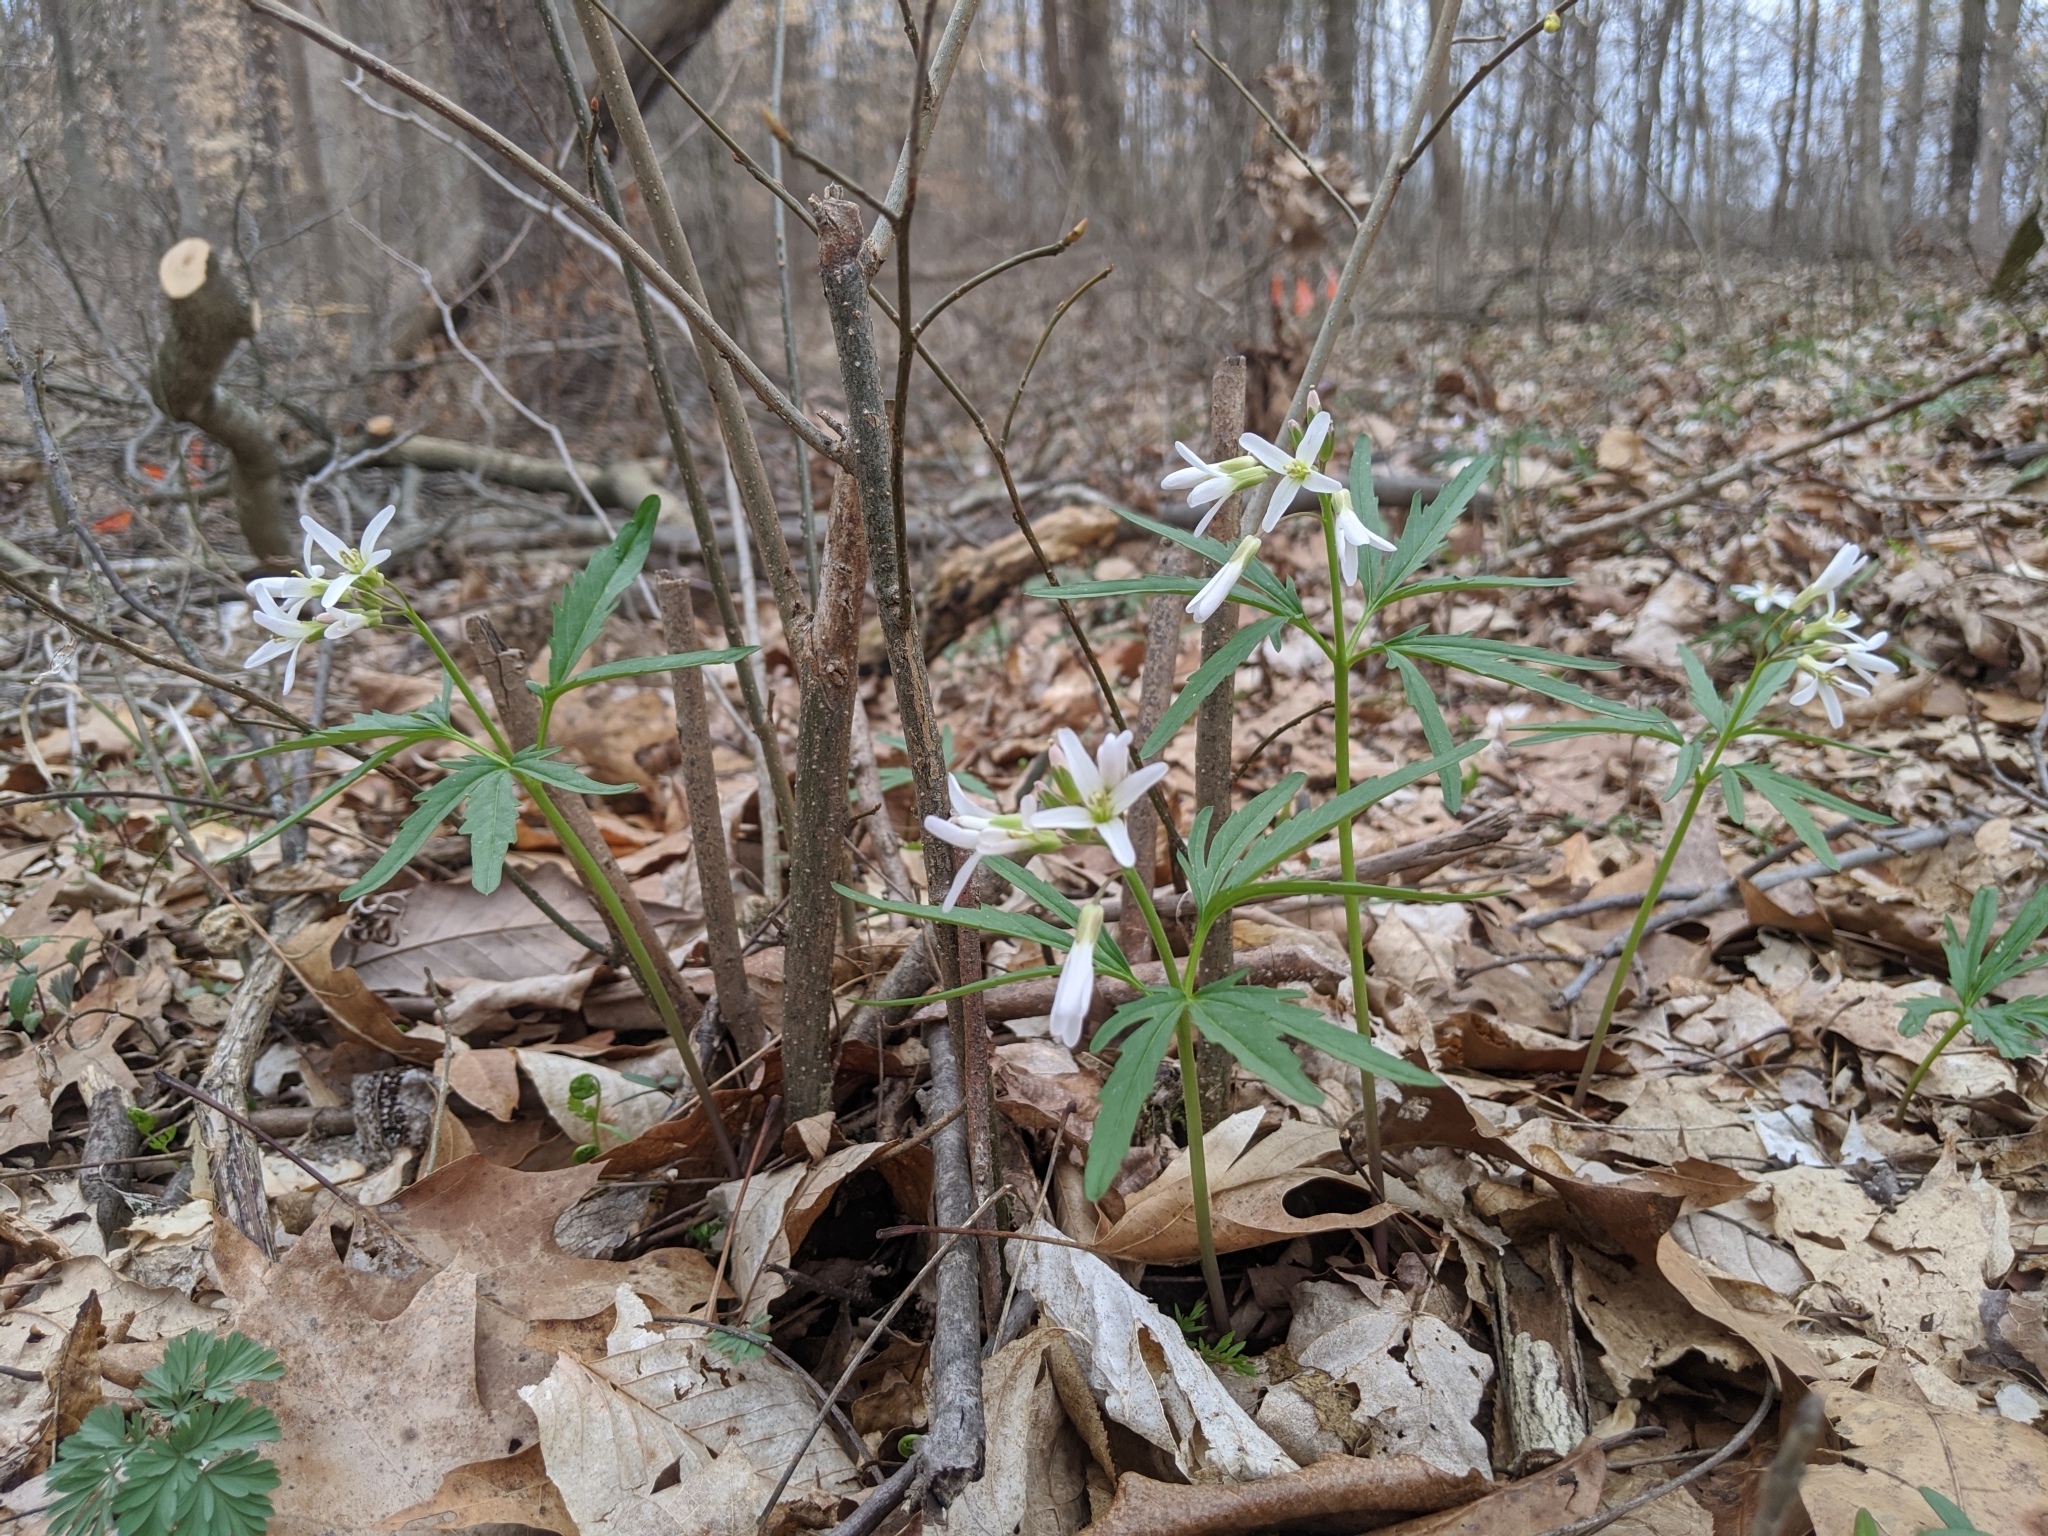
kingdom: Plantae
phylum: Tracheophyta
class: Magnoliopsida
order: Brassicales
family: Brassicaceae
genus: Cardamine
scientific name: Cardamine concatenata
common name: Cut-leaf toothcup
